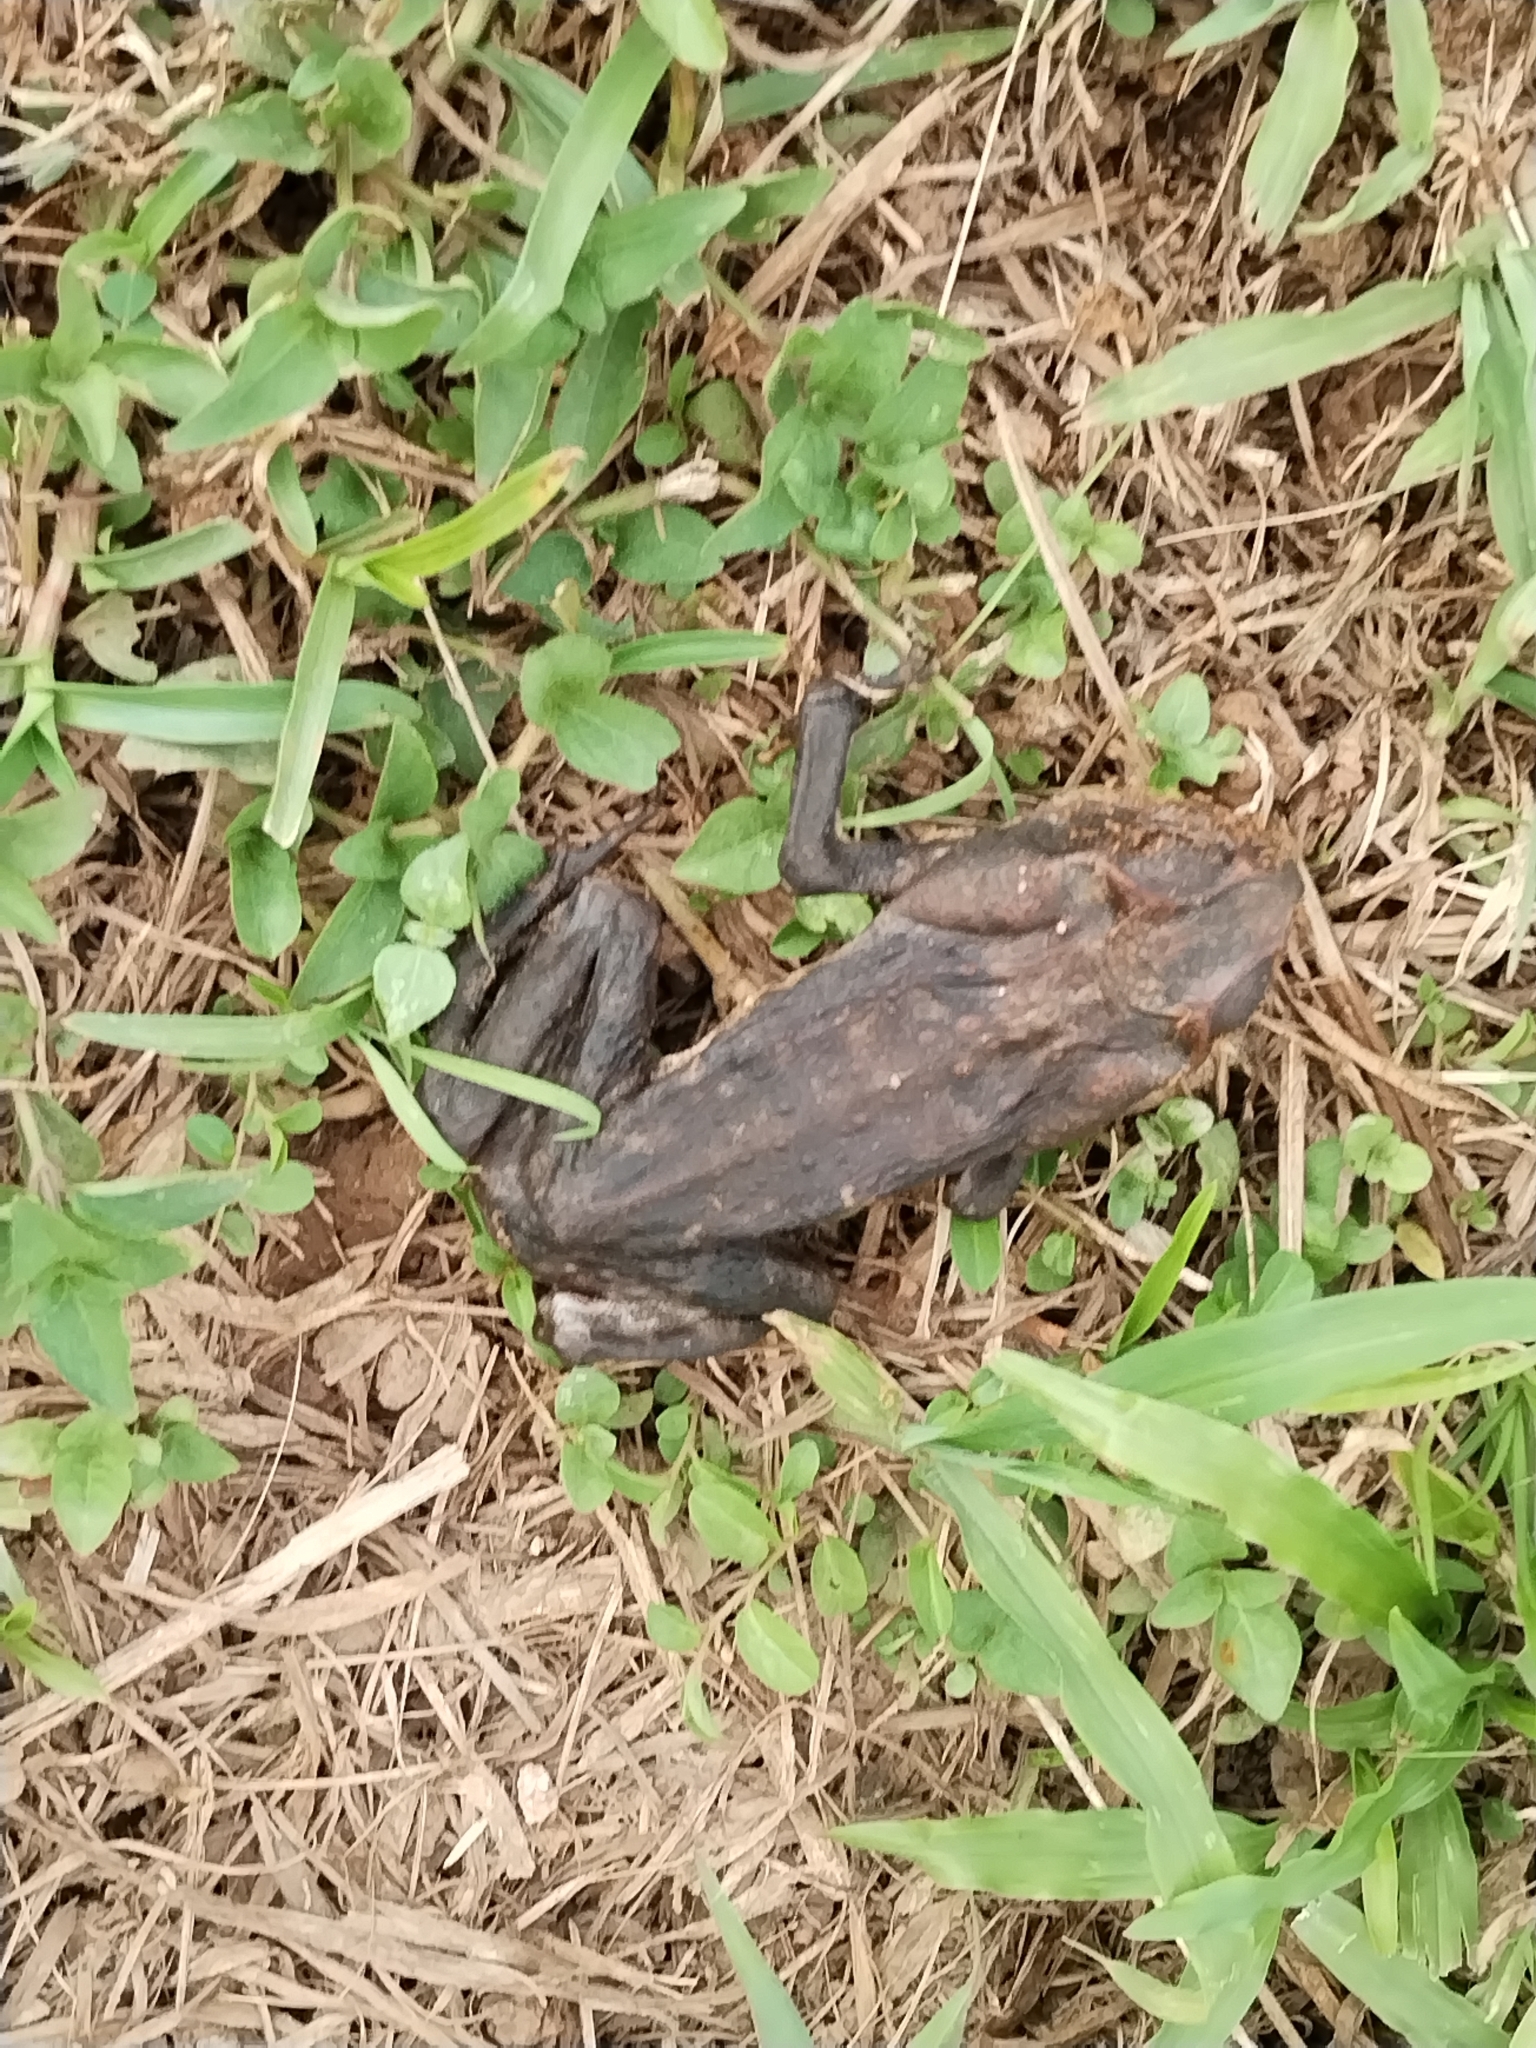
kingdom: Animalia
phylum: Chordata
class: Amphibia
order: Anura
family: Bufonidae
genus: Rhinella
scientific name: Rhinella horribilis
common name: Mesoamerican cane toad
